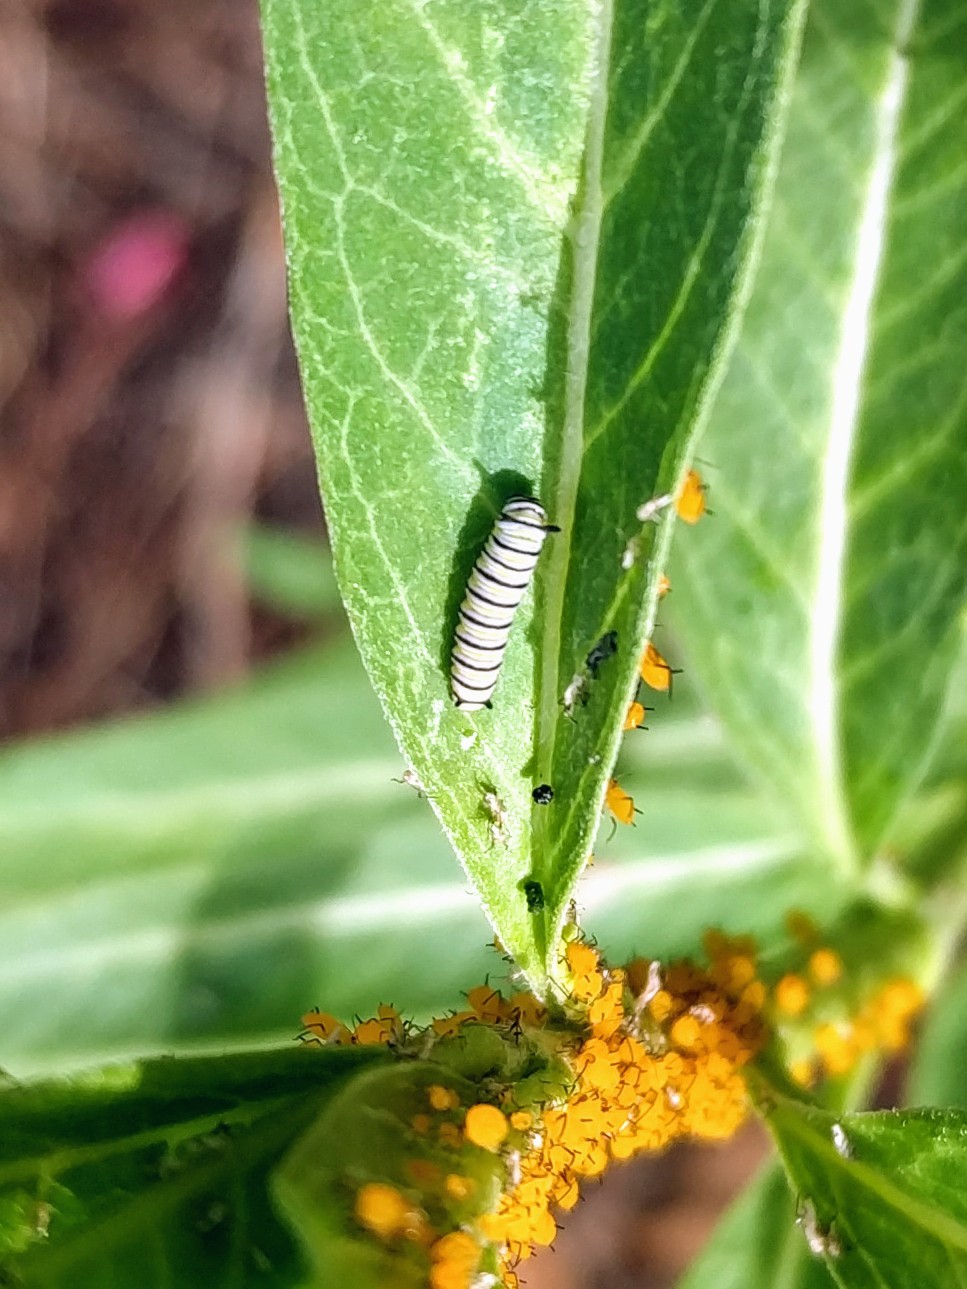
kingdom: Animalia
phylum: Arthropoda
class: Insecta
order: Lepidoptera
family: Nymphalidae
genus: Danaus
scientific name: Danaus plexippus
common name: Monarch
